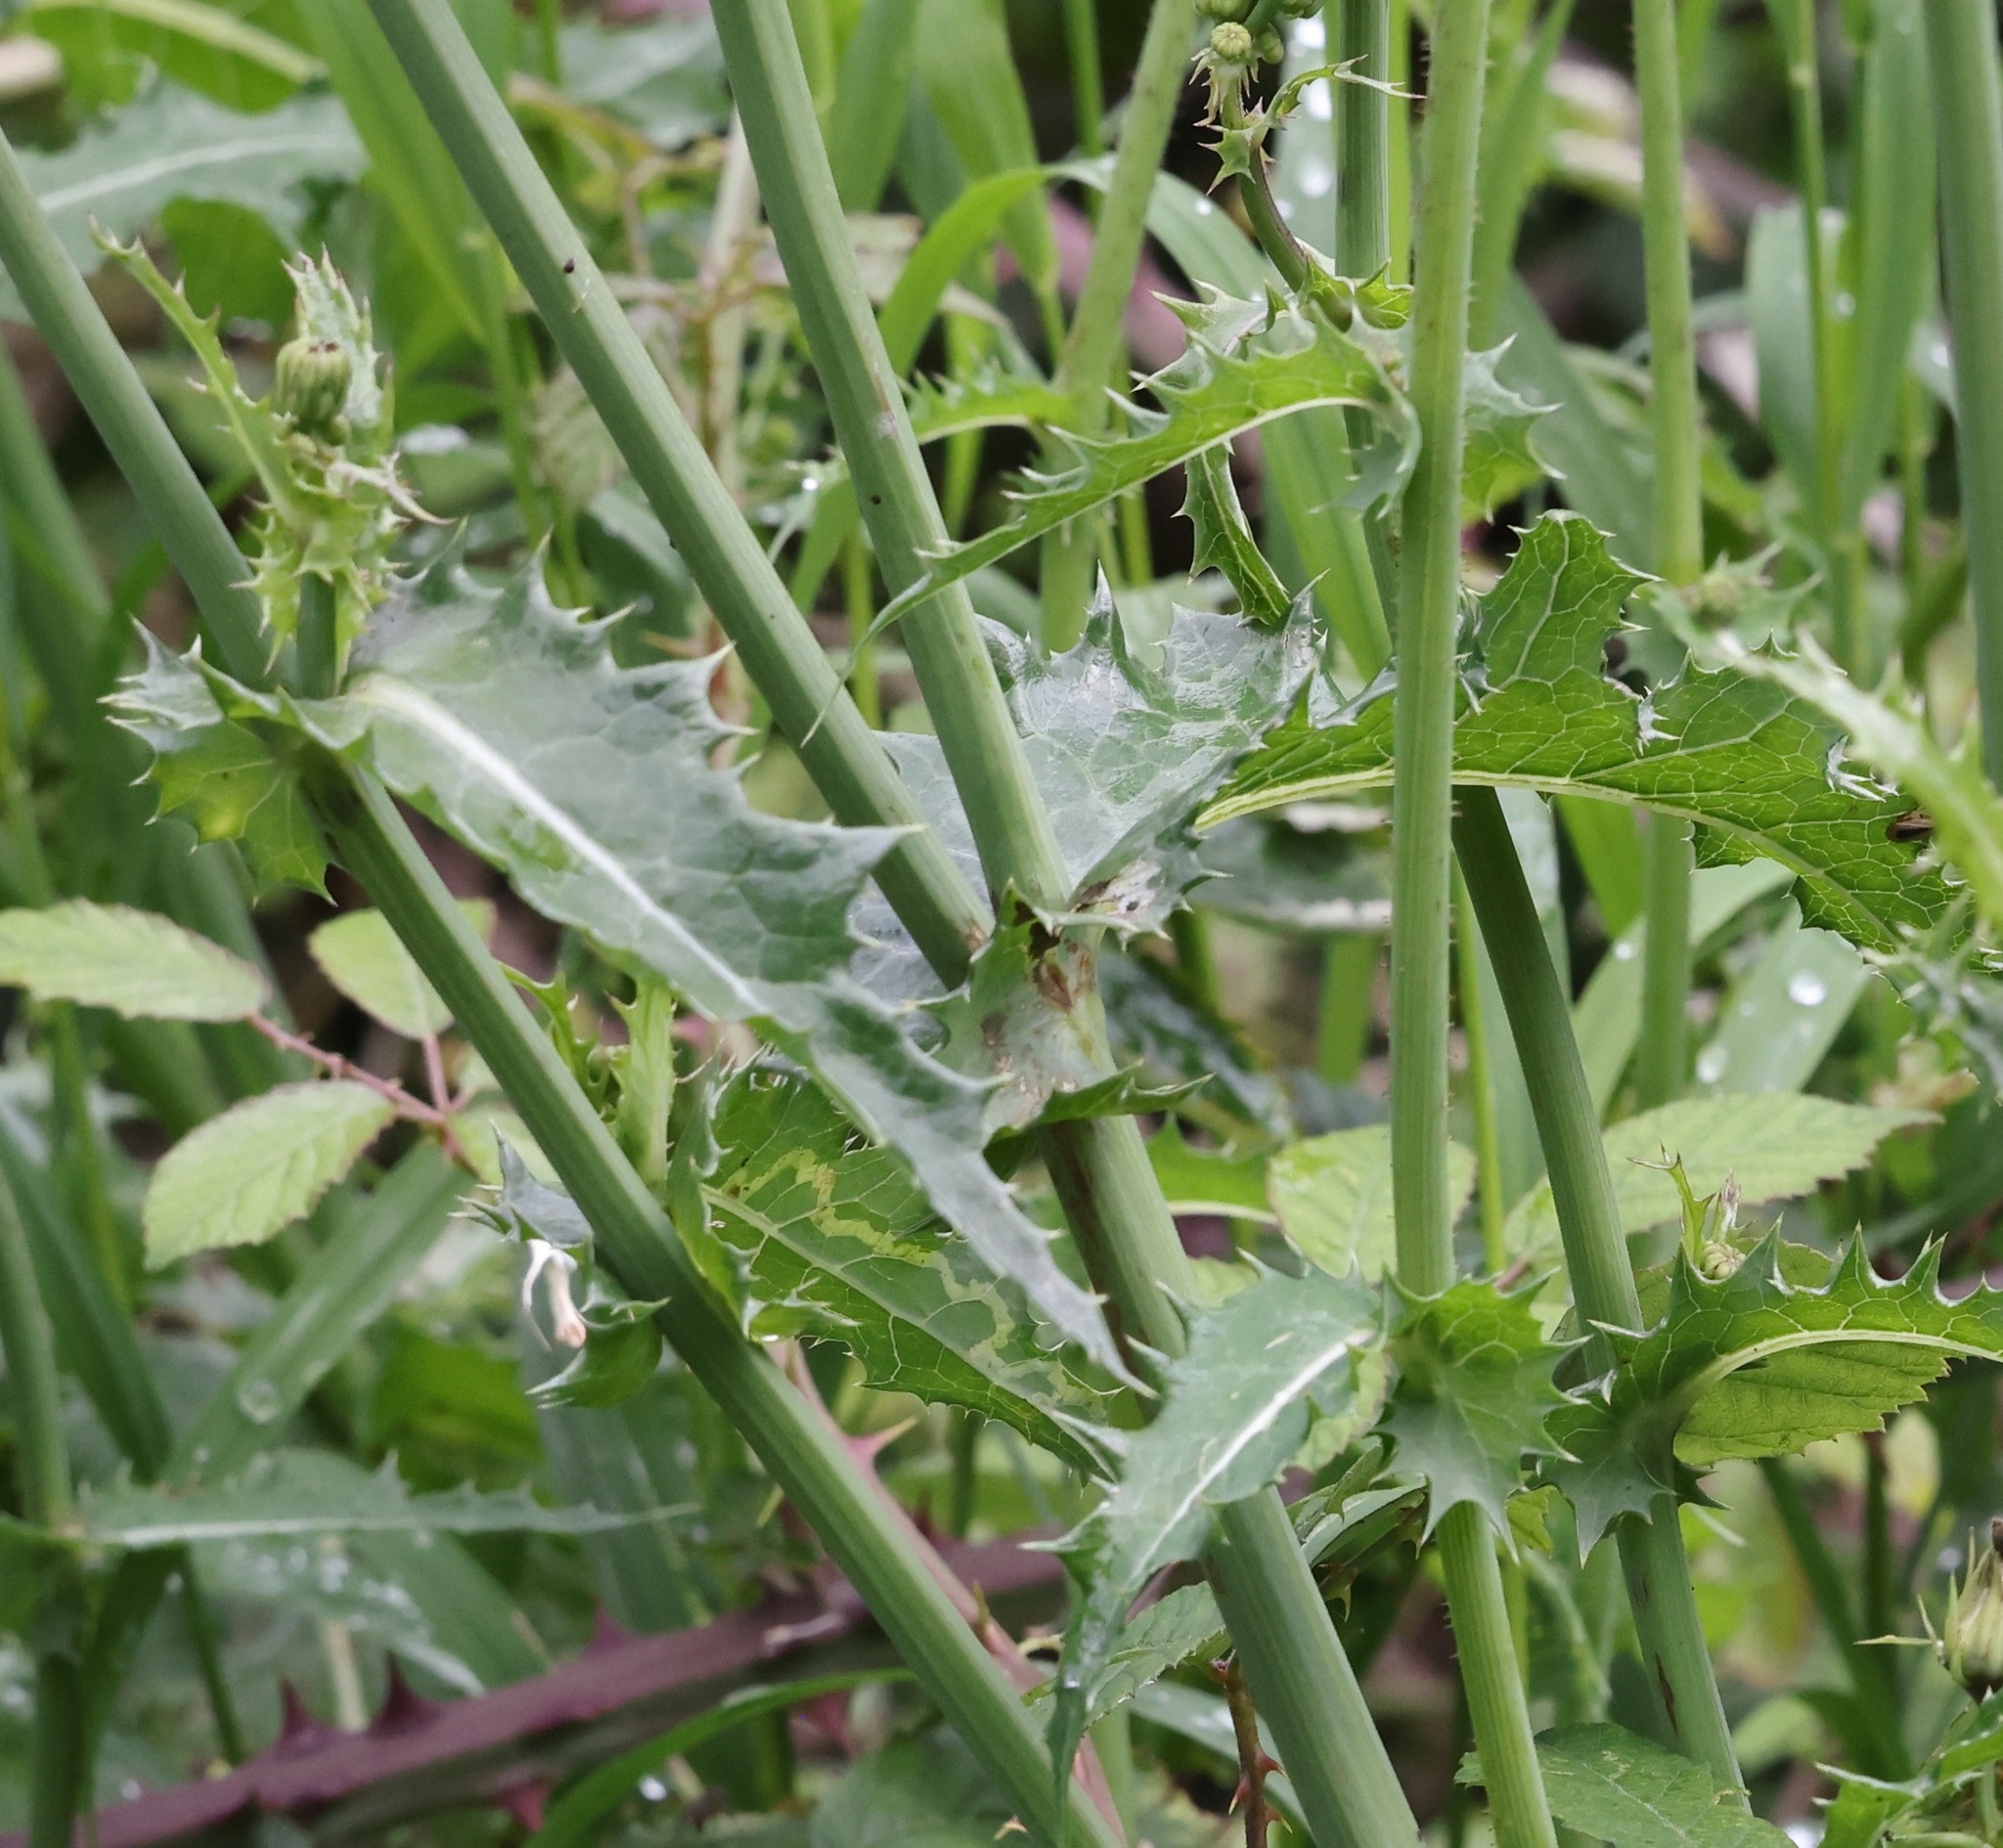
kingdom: Plantae
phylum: Tracheophyta
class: Magnoliopsida
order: Asterales
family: Asteraceae
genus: Sonchus
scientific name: Sonchus asper
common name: Prickly sow-thistle
